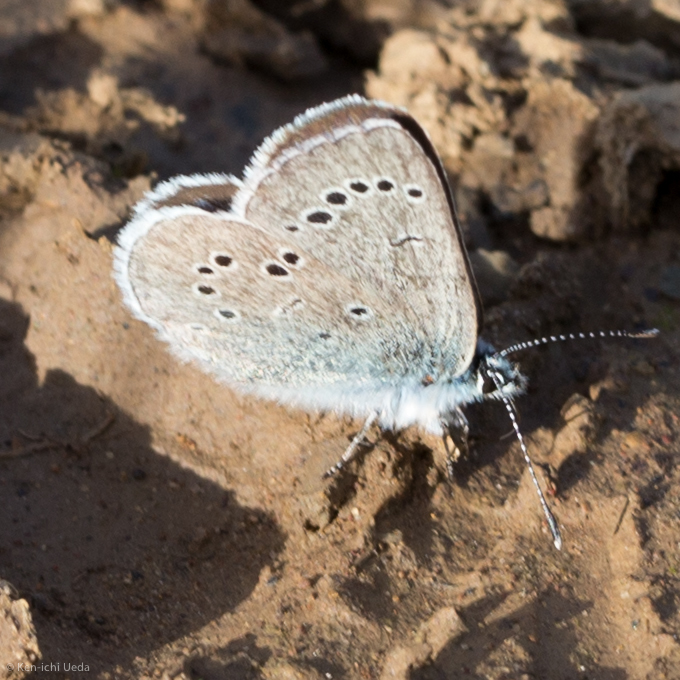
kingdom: Animalia
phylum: Arthropoda
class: Insecta
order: Lepidoptera
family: Lycaenidae
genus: Glaucopsyche
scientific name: Glaucopsyche lygdamus
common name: Silvery blue
